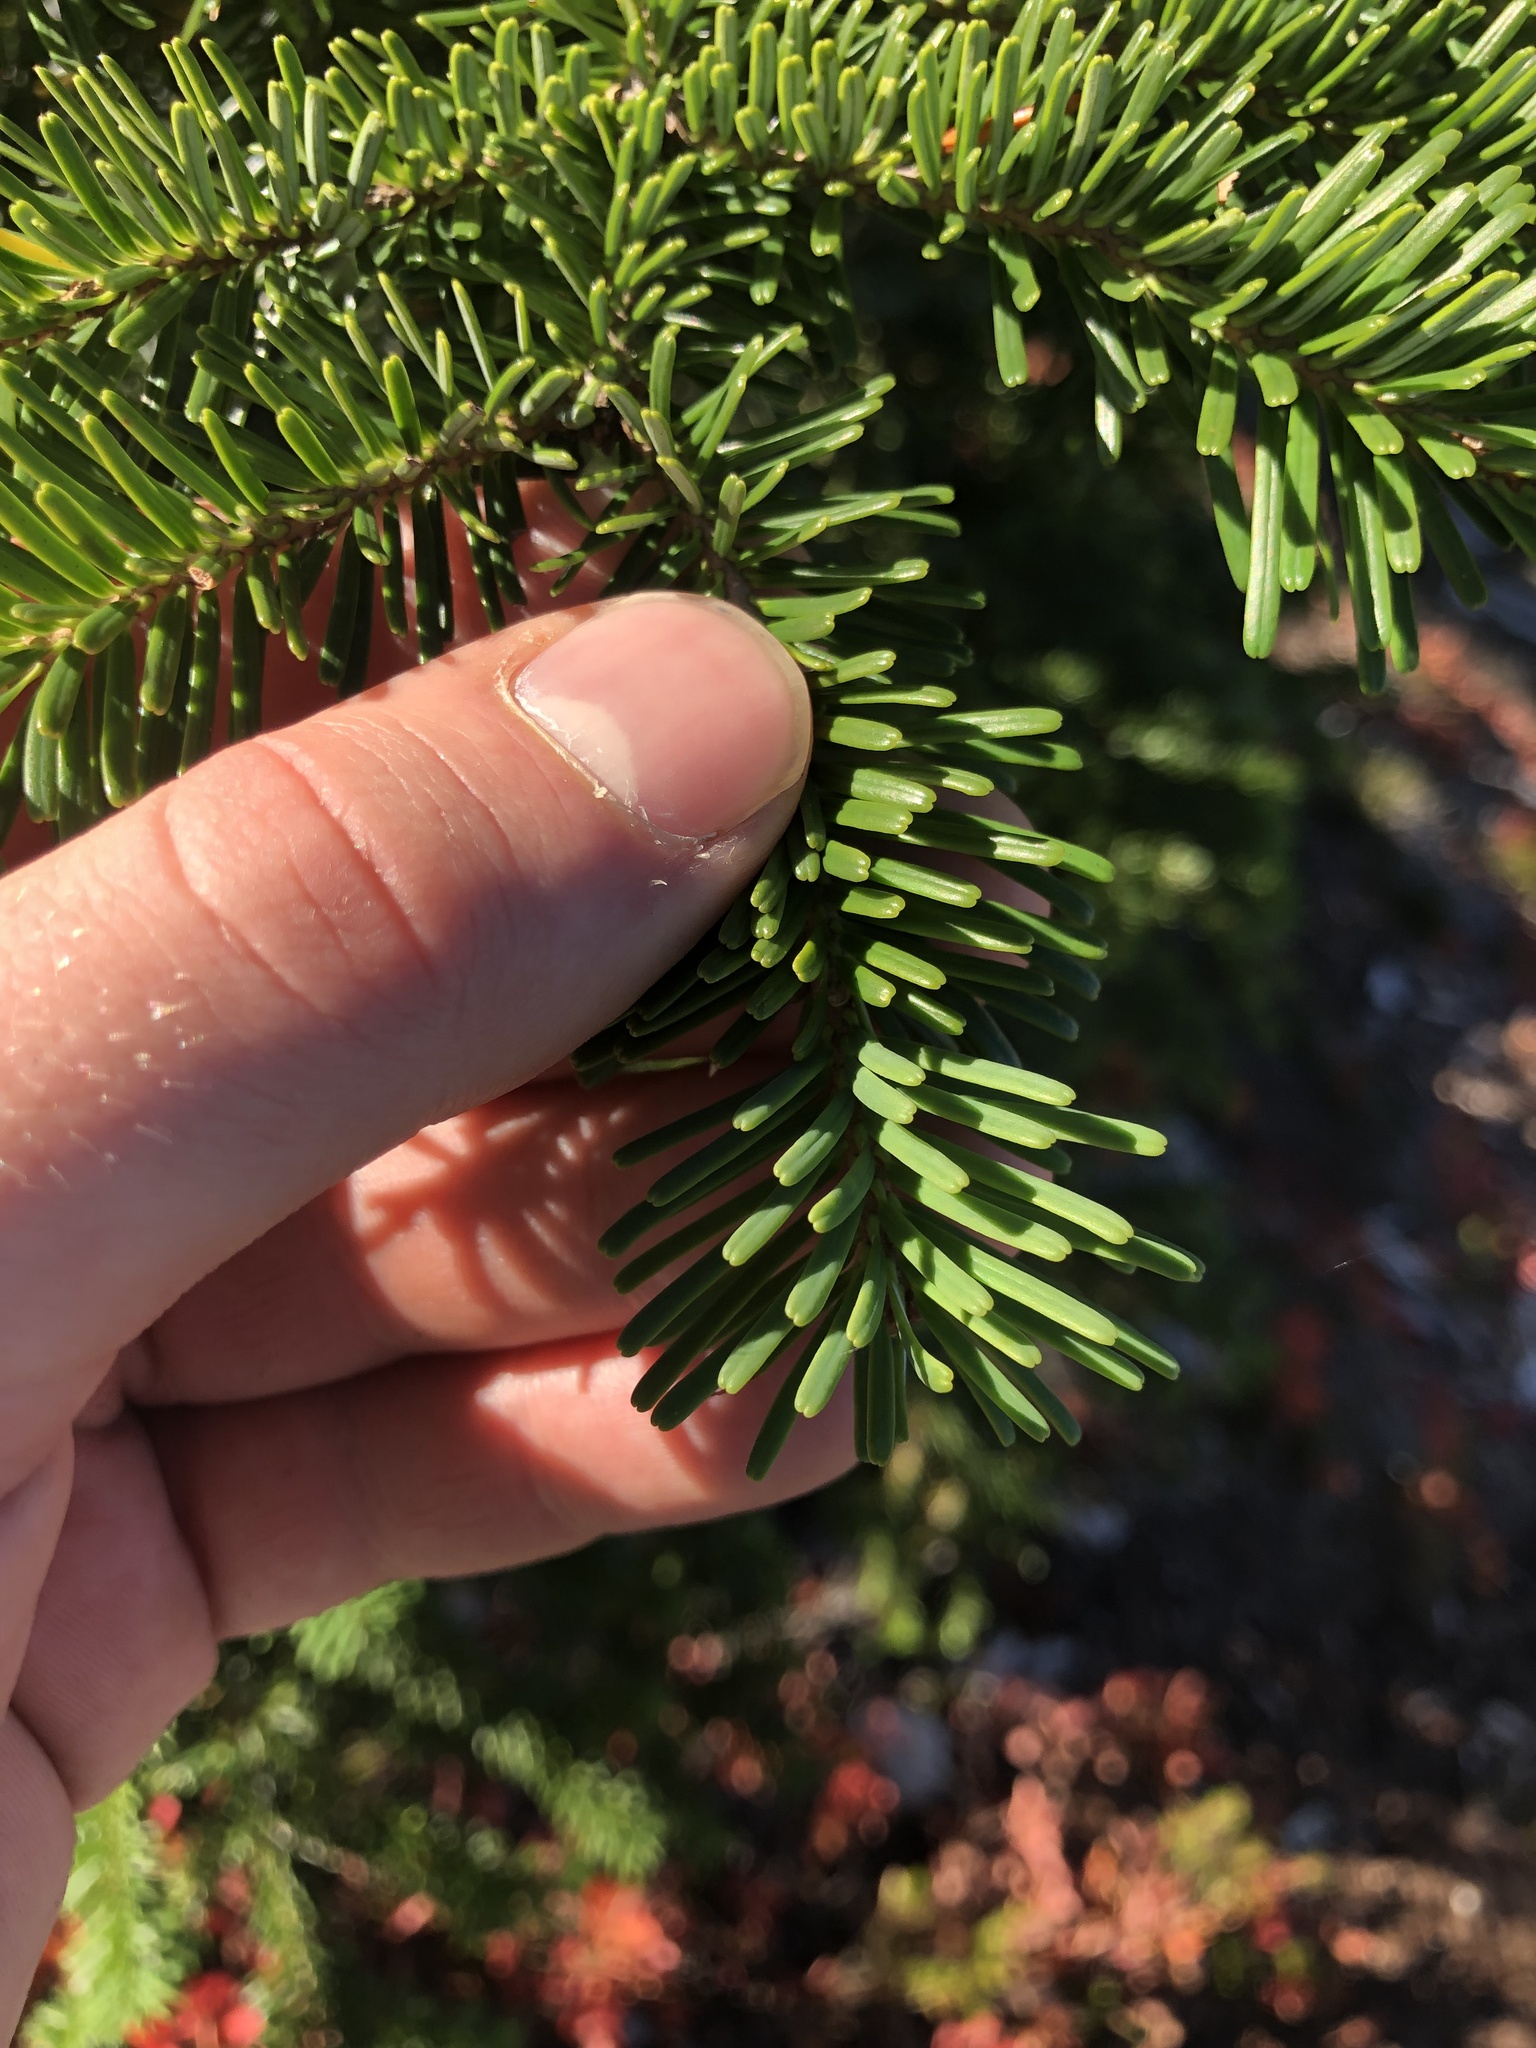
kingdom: Plantae
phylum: Tracheophyta
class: Pinopsida
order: Pinales
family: Pinaceae
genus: Abies
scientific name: Abies amabilis
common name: Pacific silver fir
